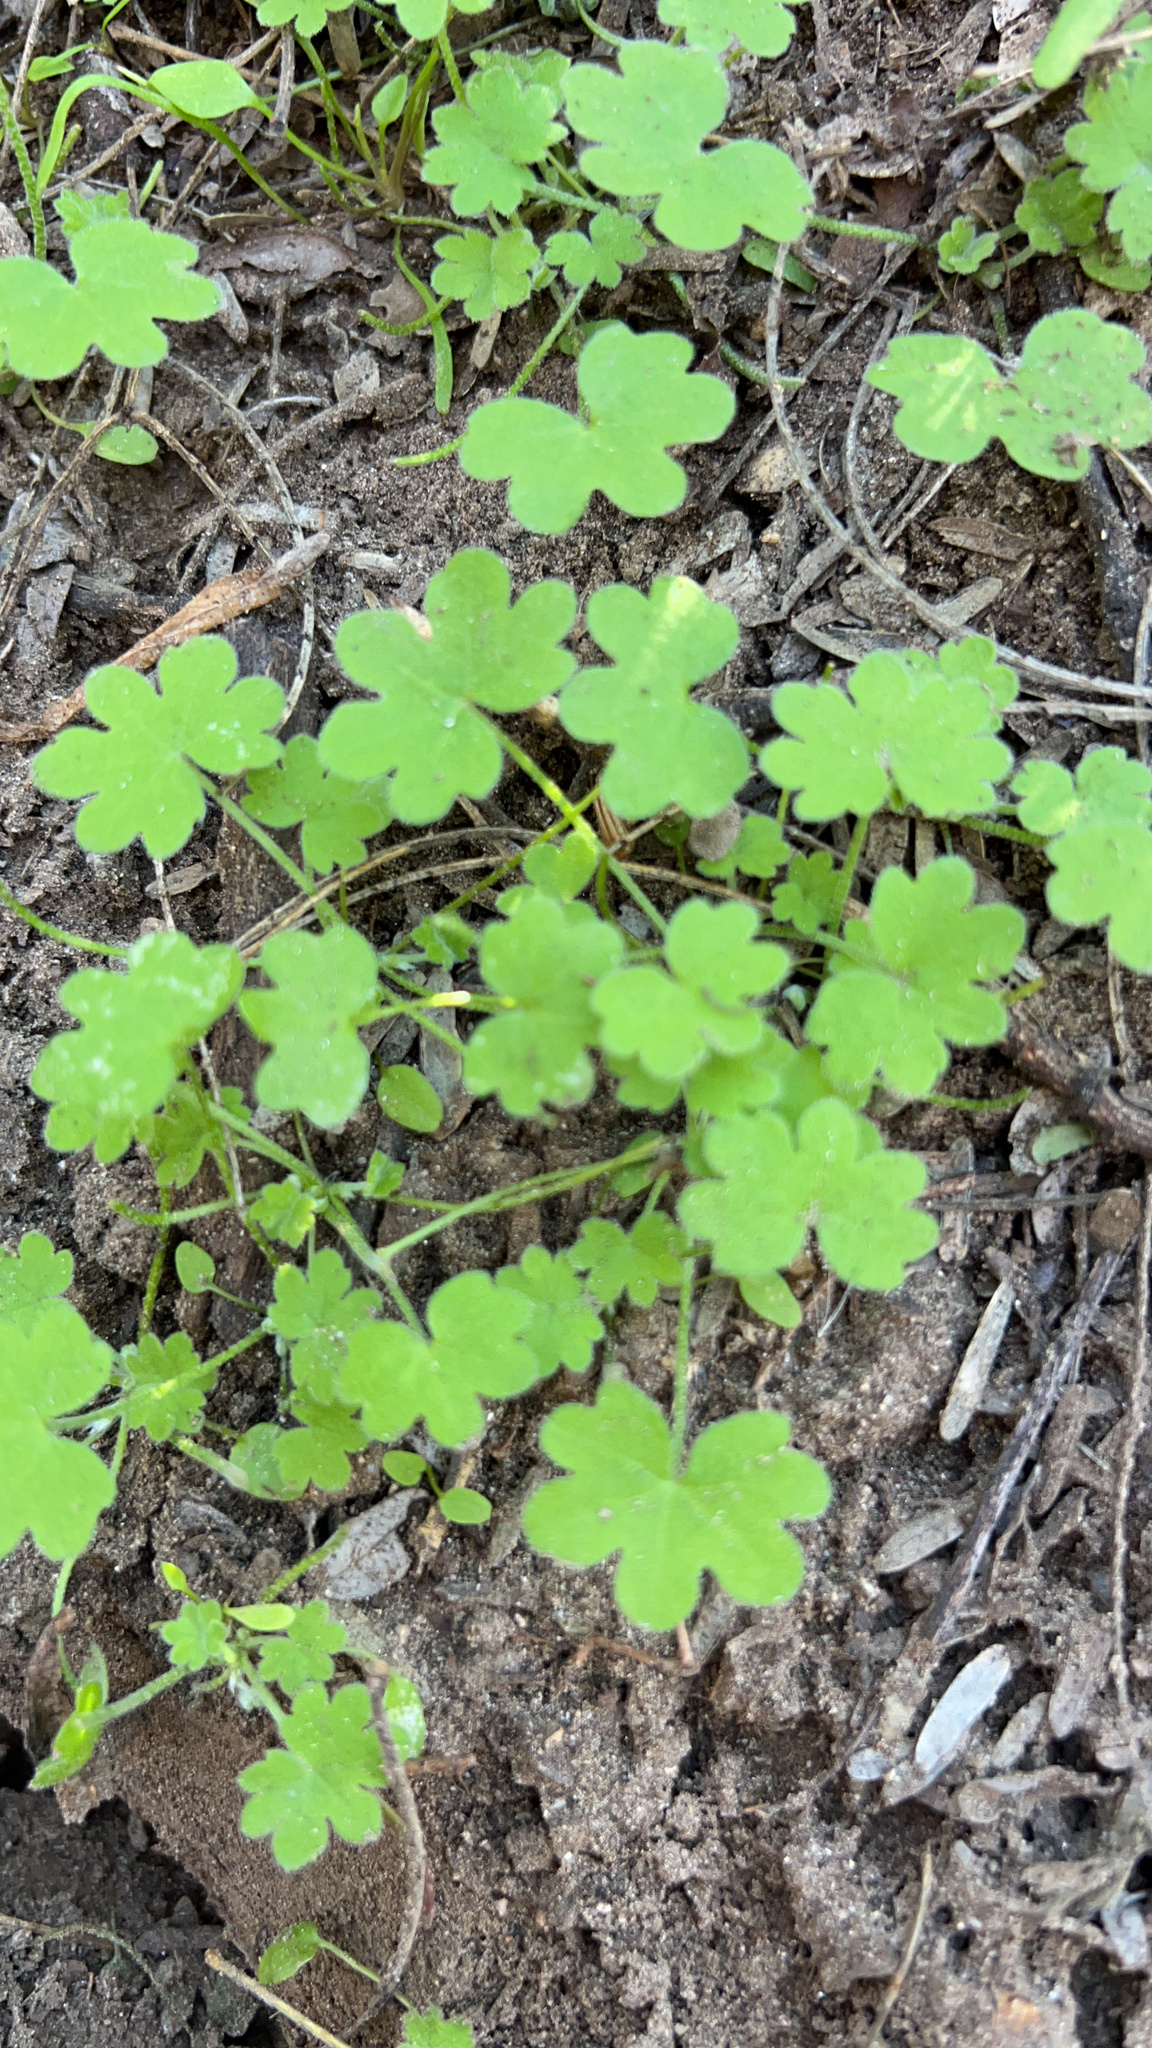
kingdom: Plantae
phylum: Tracheophyta
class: Magnoliopsida
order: Apiales
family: Apiaceae
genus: Bowlesia
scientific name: Bowlesia incana
